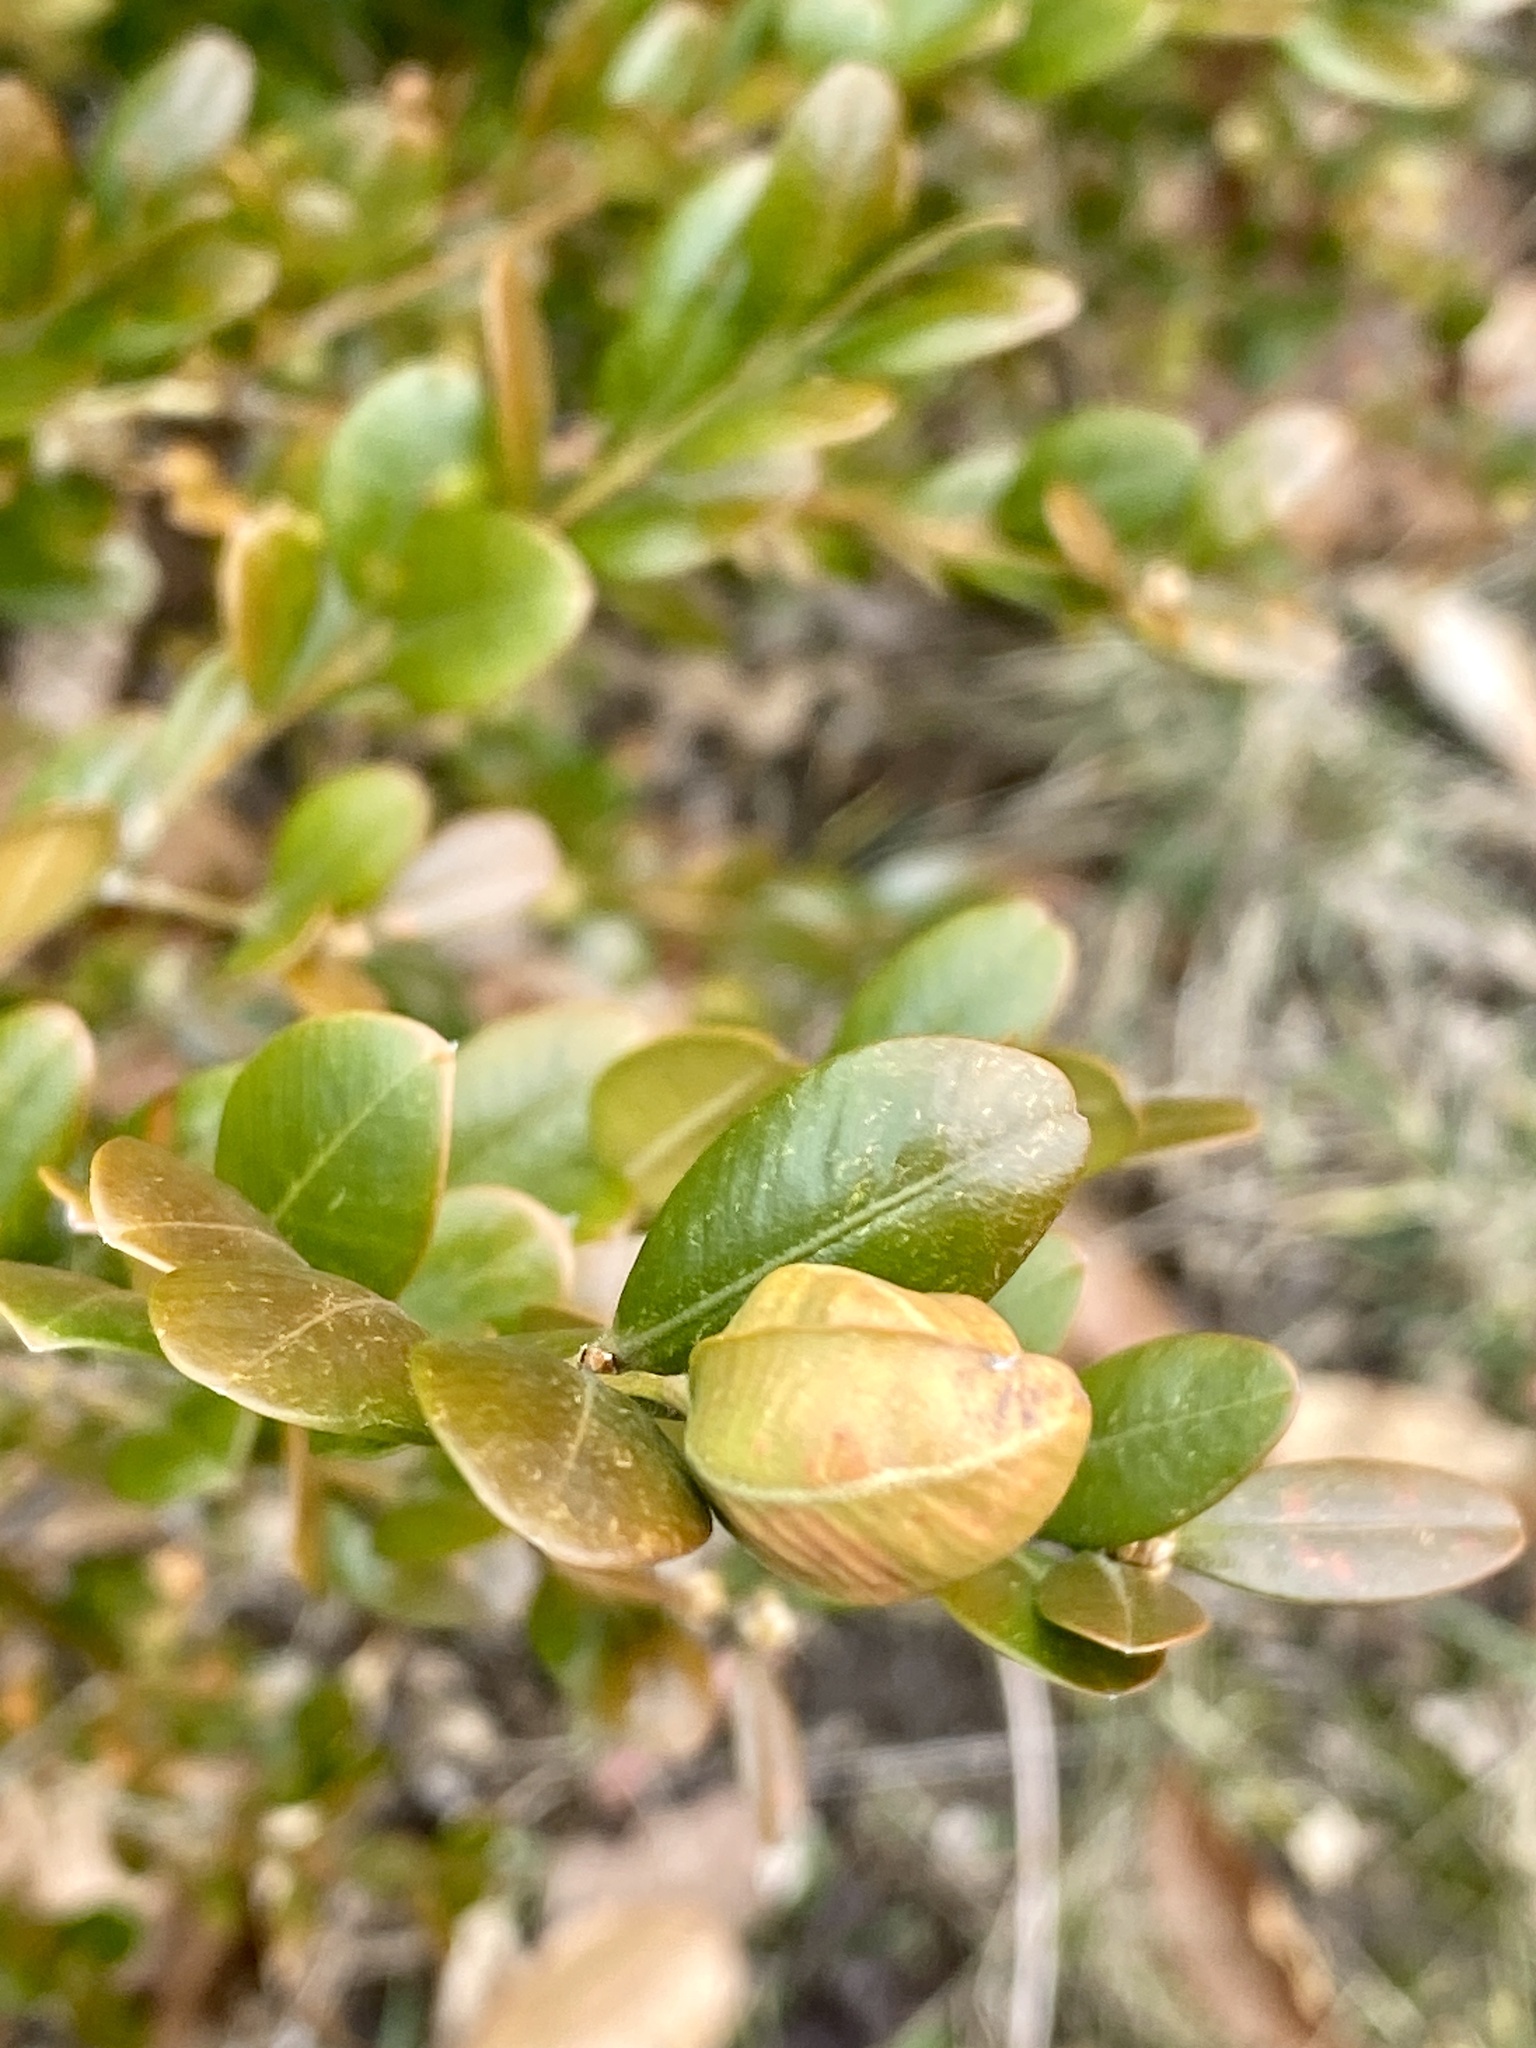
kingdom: Animalia
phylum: Arthropoda
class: Insecta
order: Hemiptera
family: Psyllidae
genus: Psylla
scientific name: Psylla buxi
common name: Boxwood psyllid
